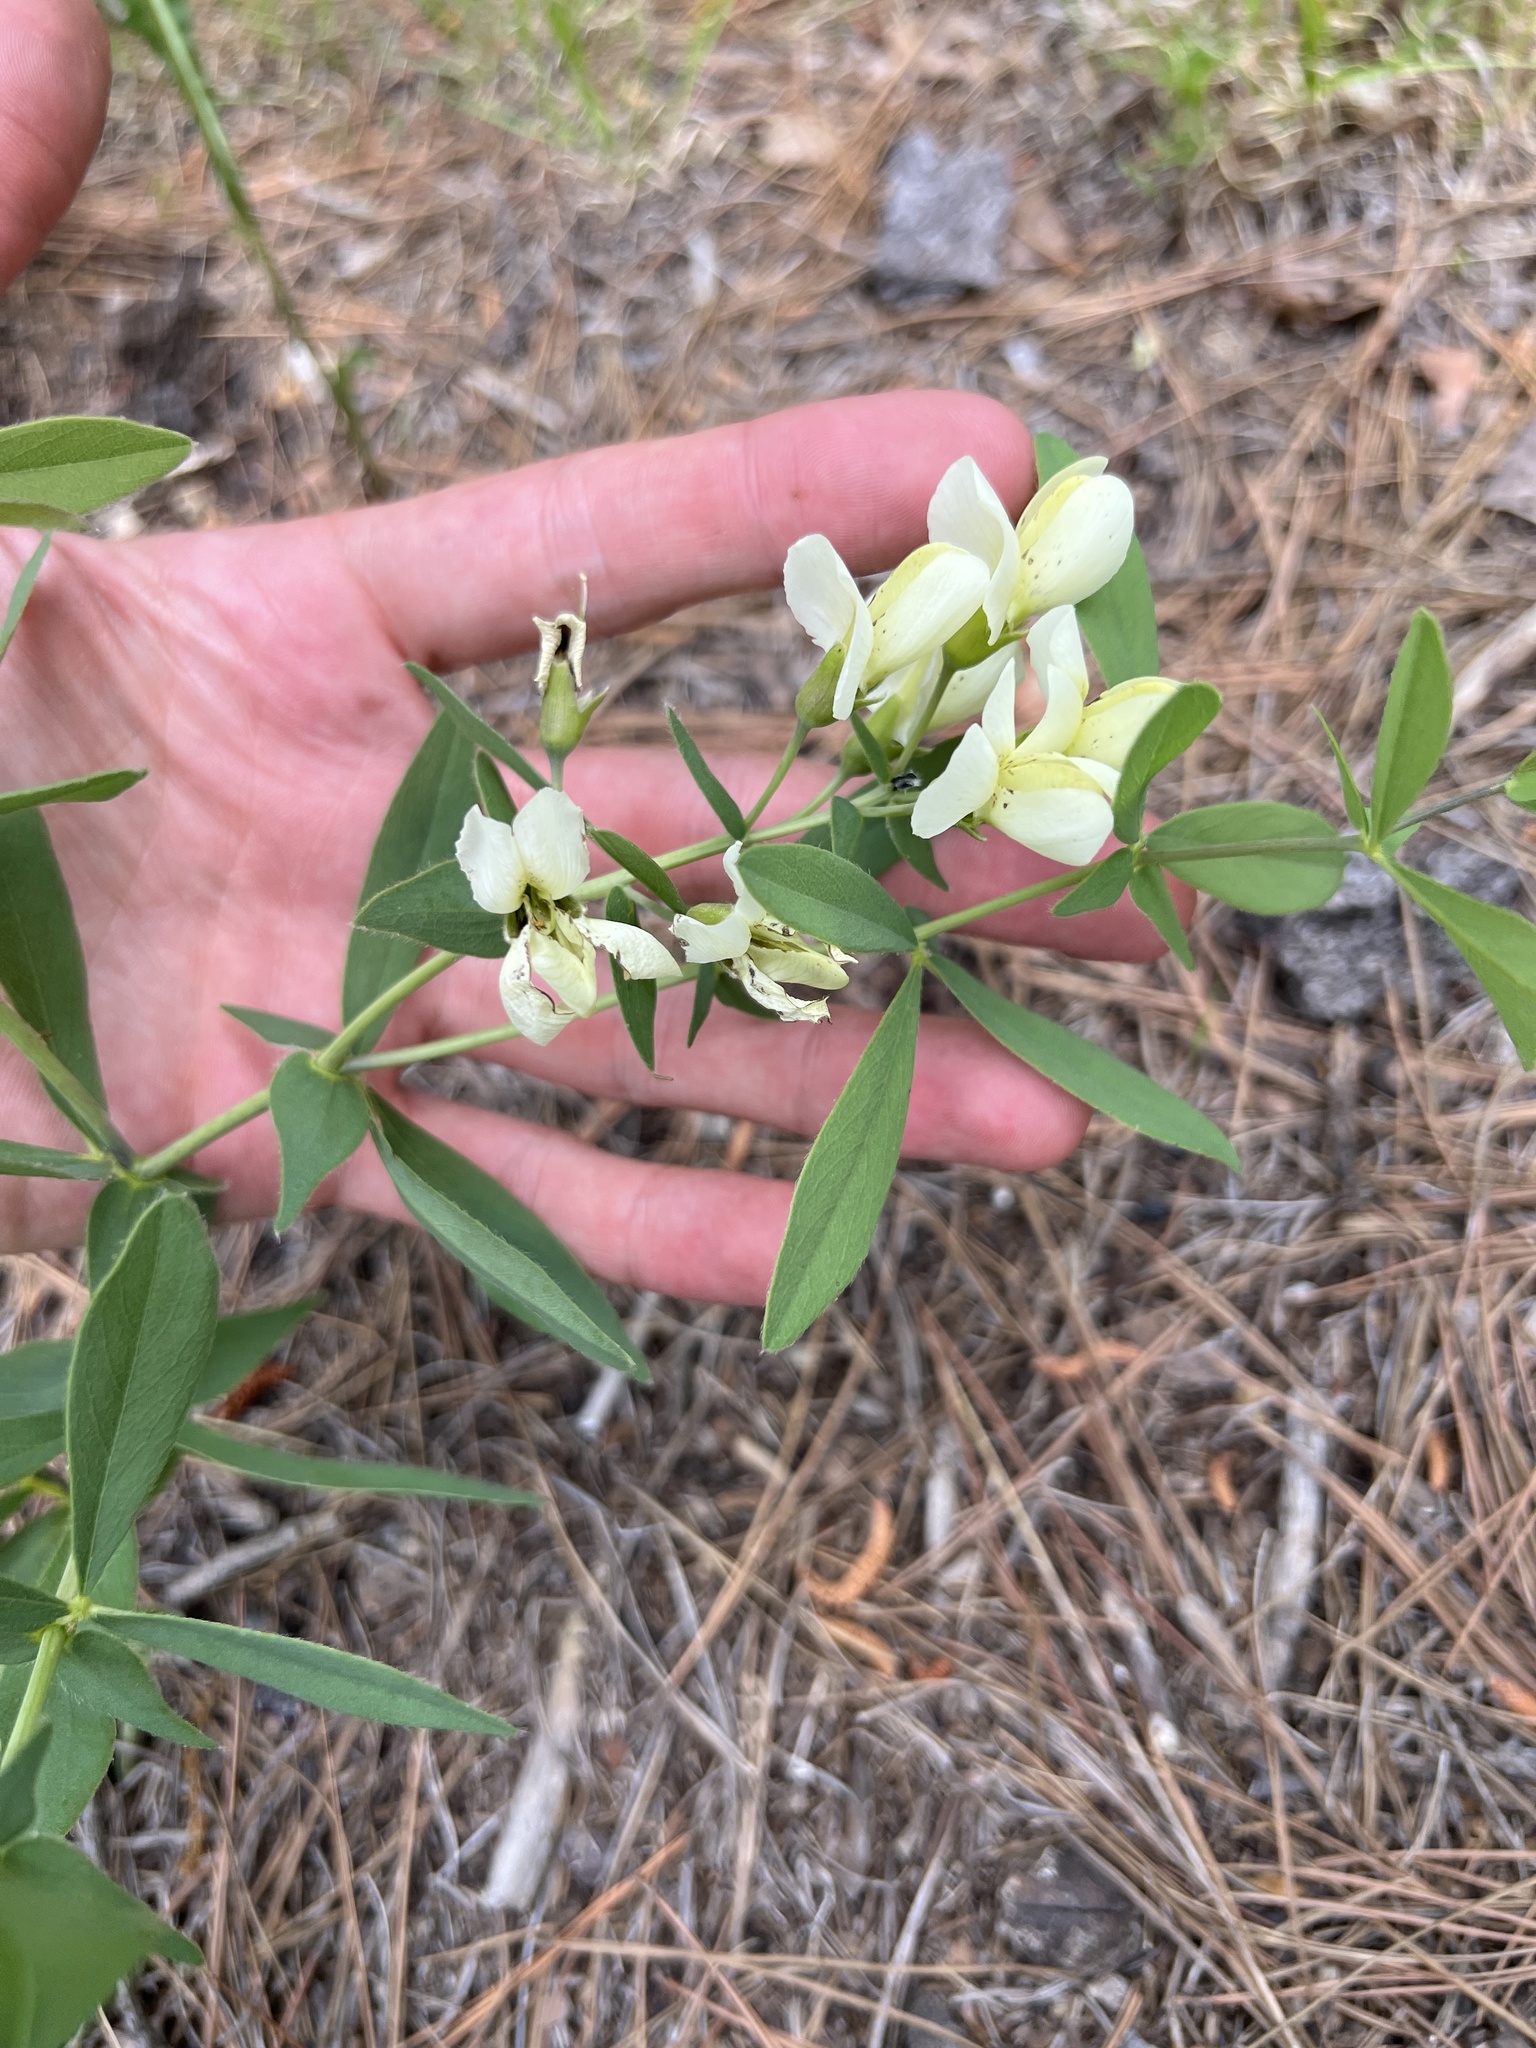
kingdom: Plantae
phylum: Tracheophyta
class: Magnoliopsida
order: Fabales
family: Fabaceae
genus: Baptisia
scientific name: Baptisia bracteata
